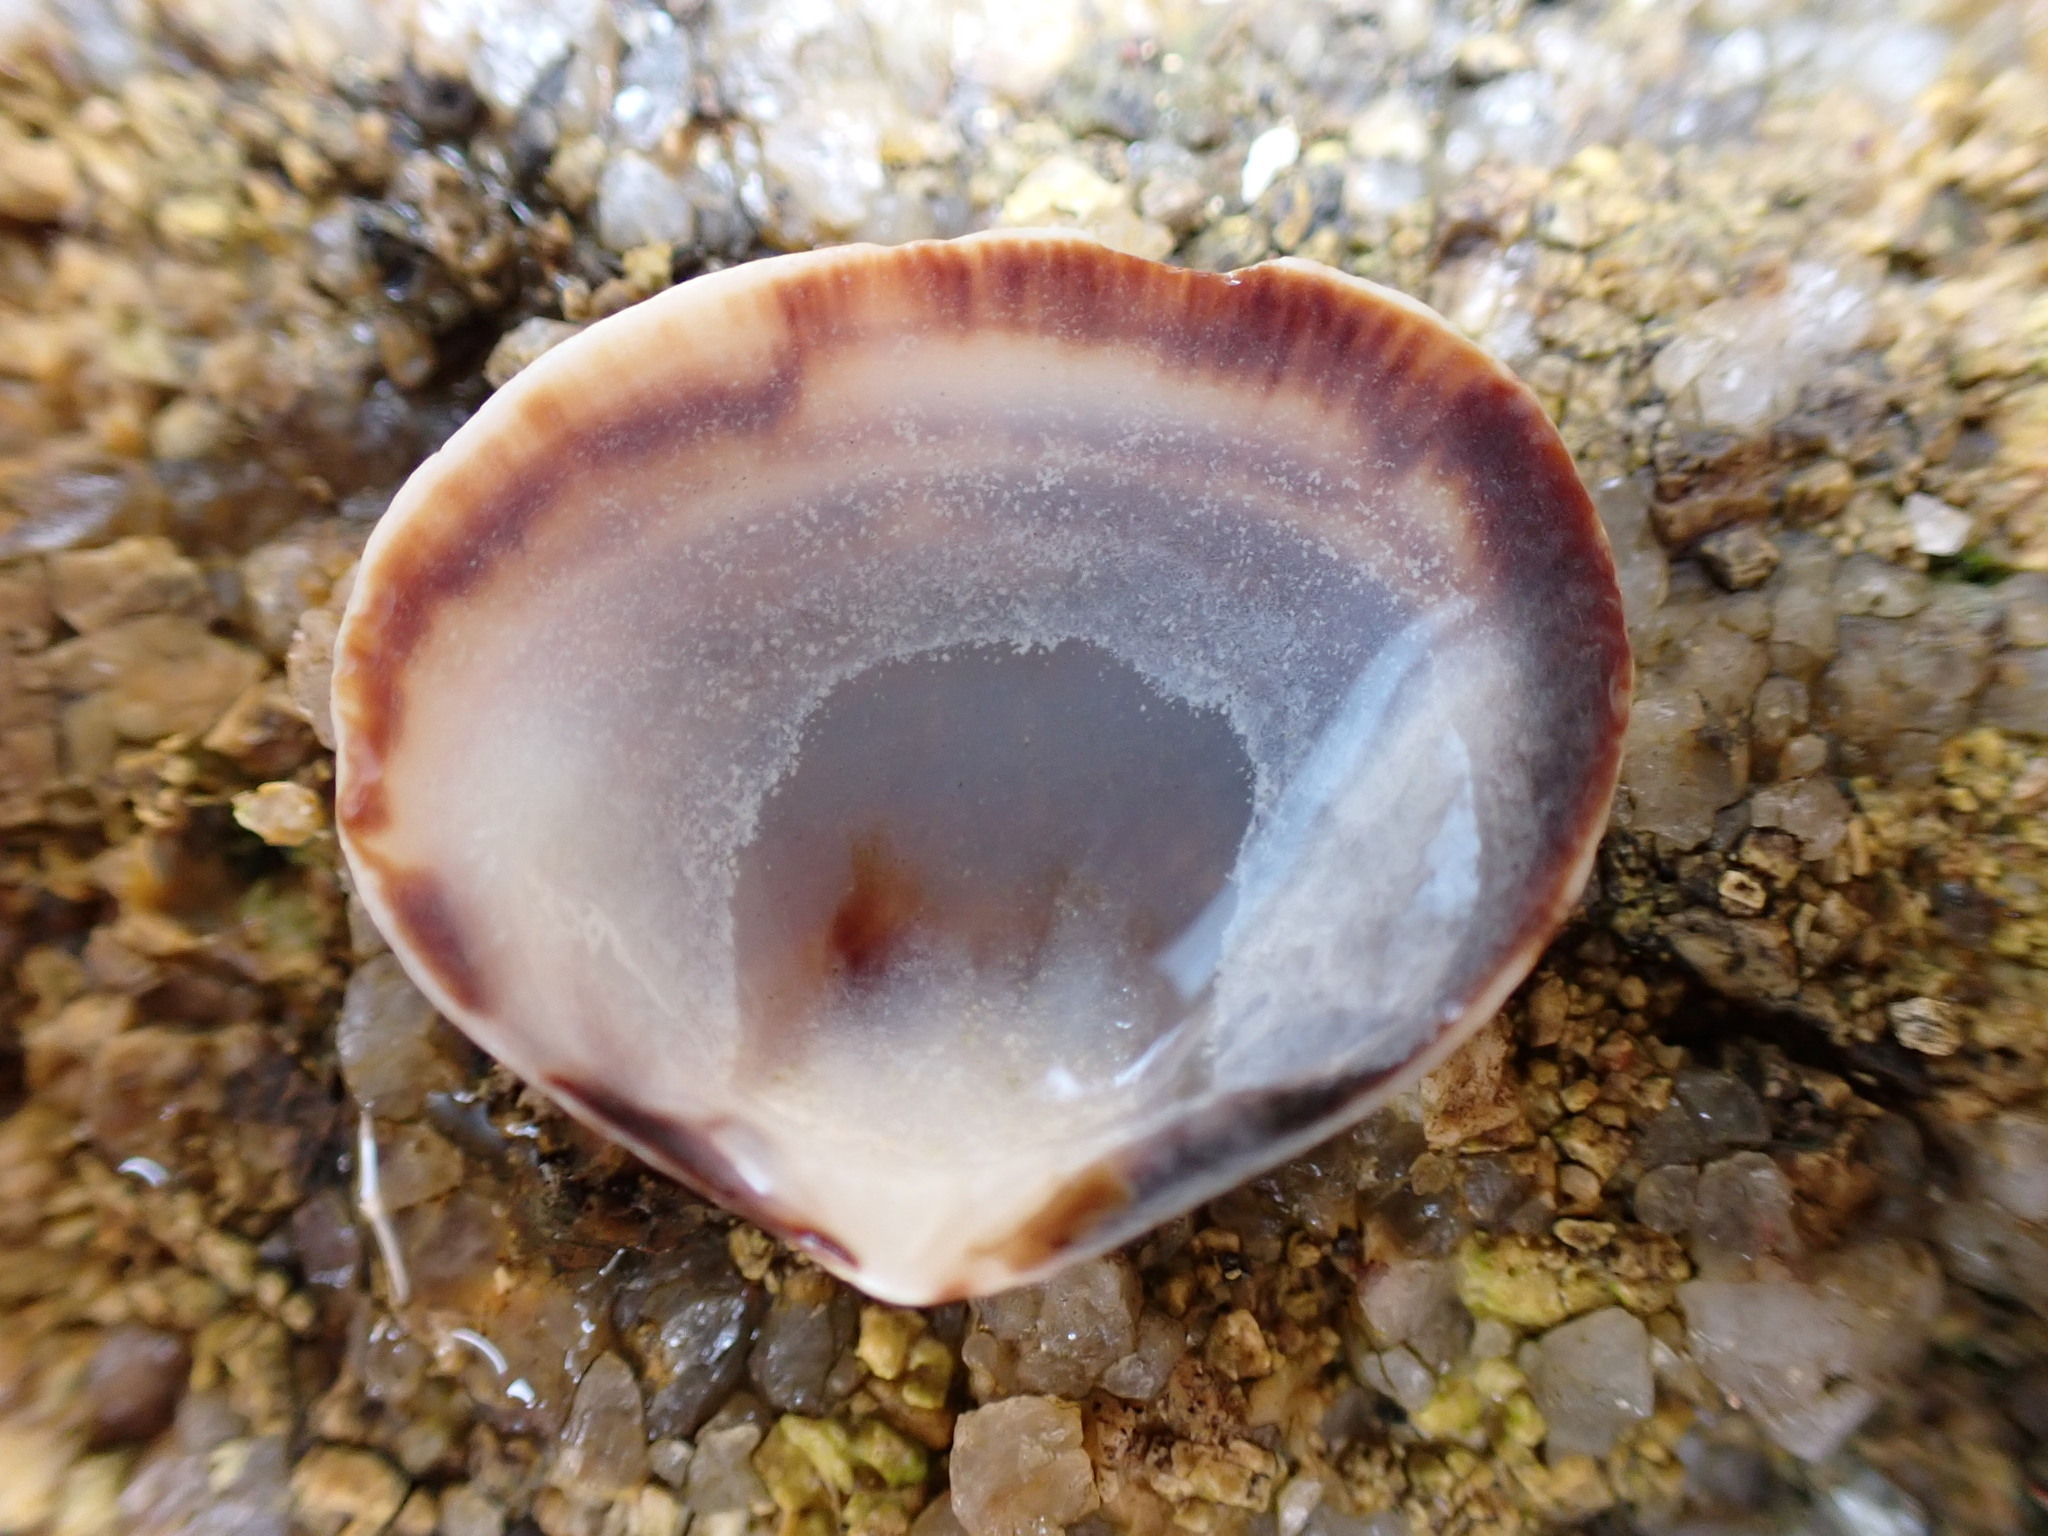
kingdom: Animalia
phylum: Mollusca
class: Bivalvia
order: Venerida
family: Veneridae
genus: Gafrarium
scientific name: Gafrarium divaricatum
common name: Forked venus
